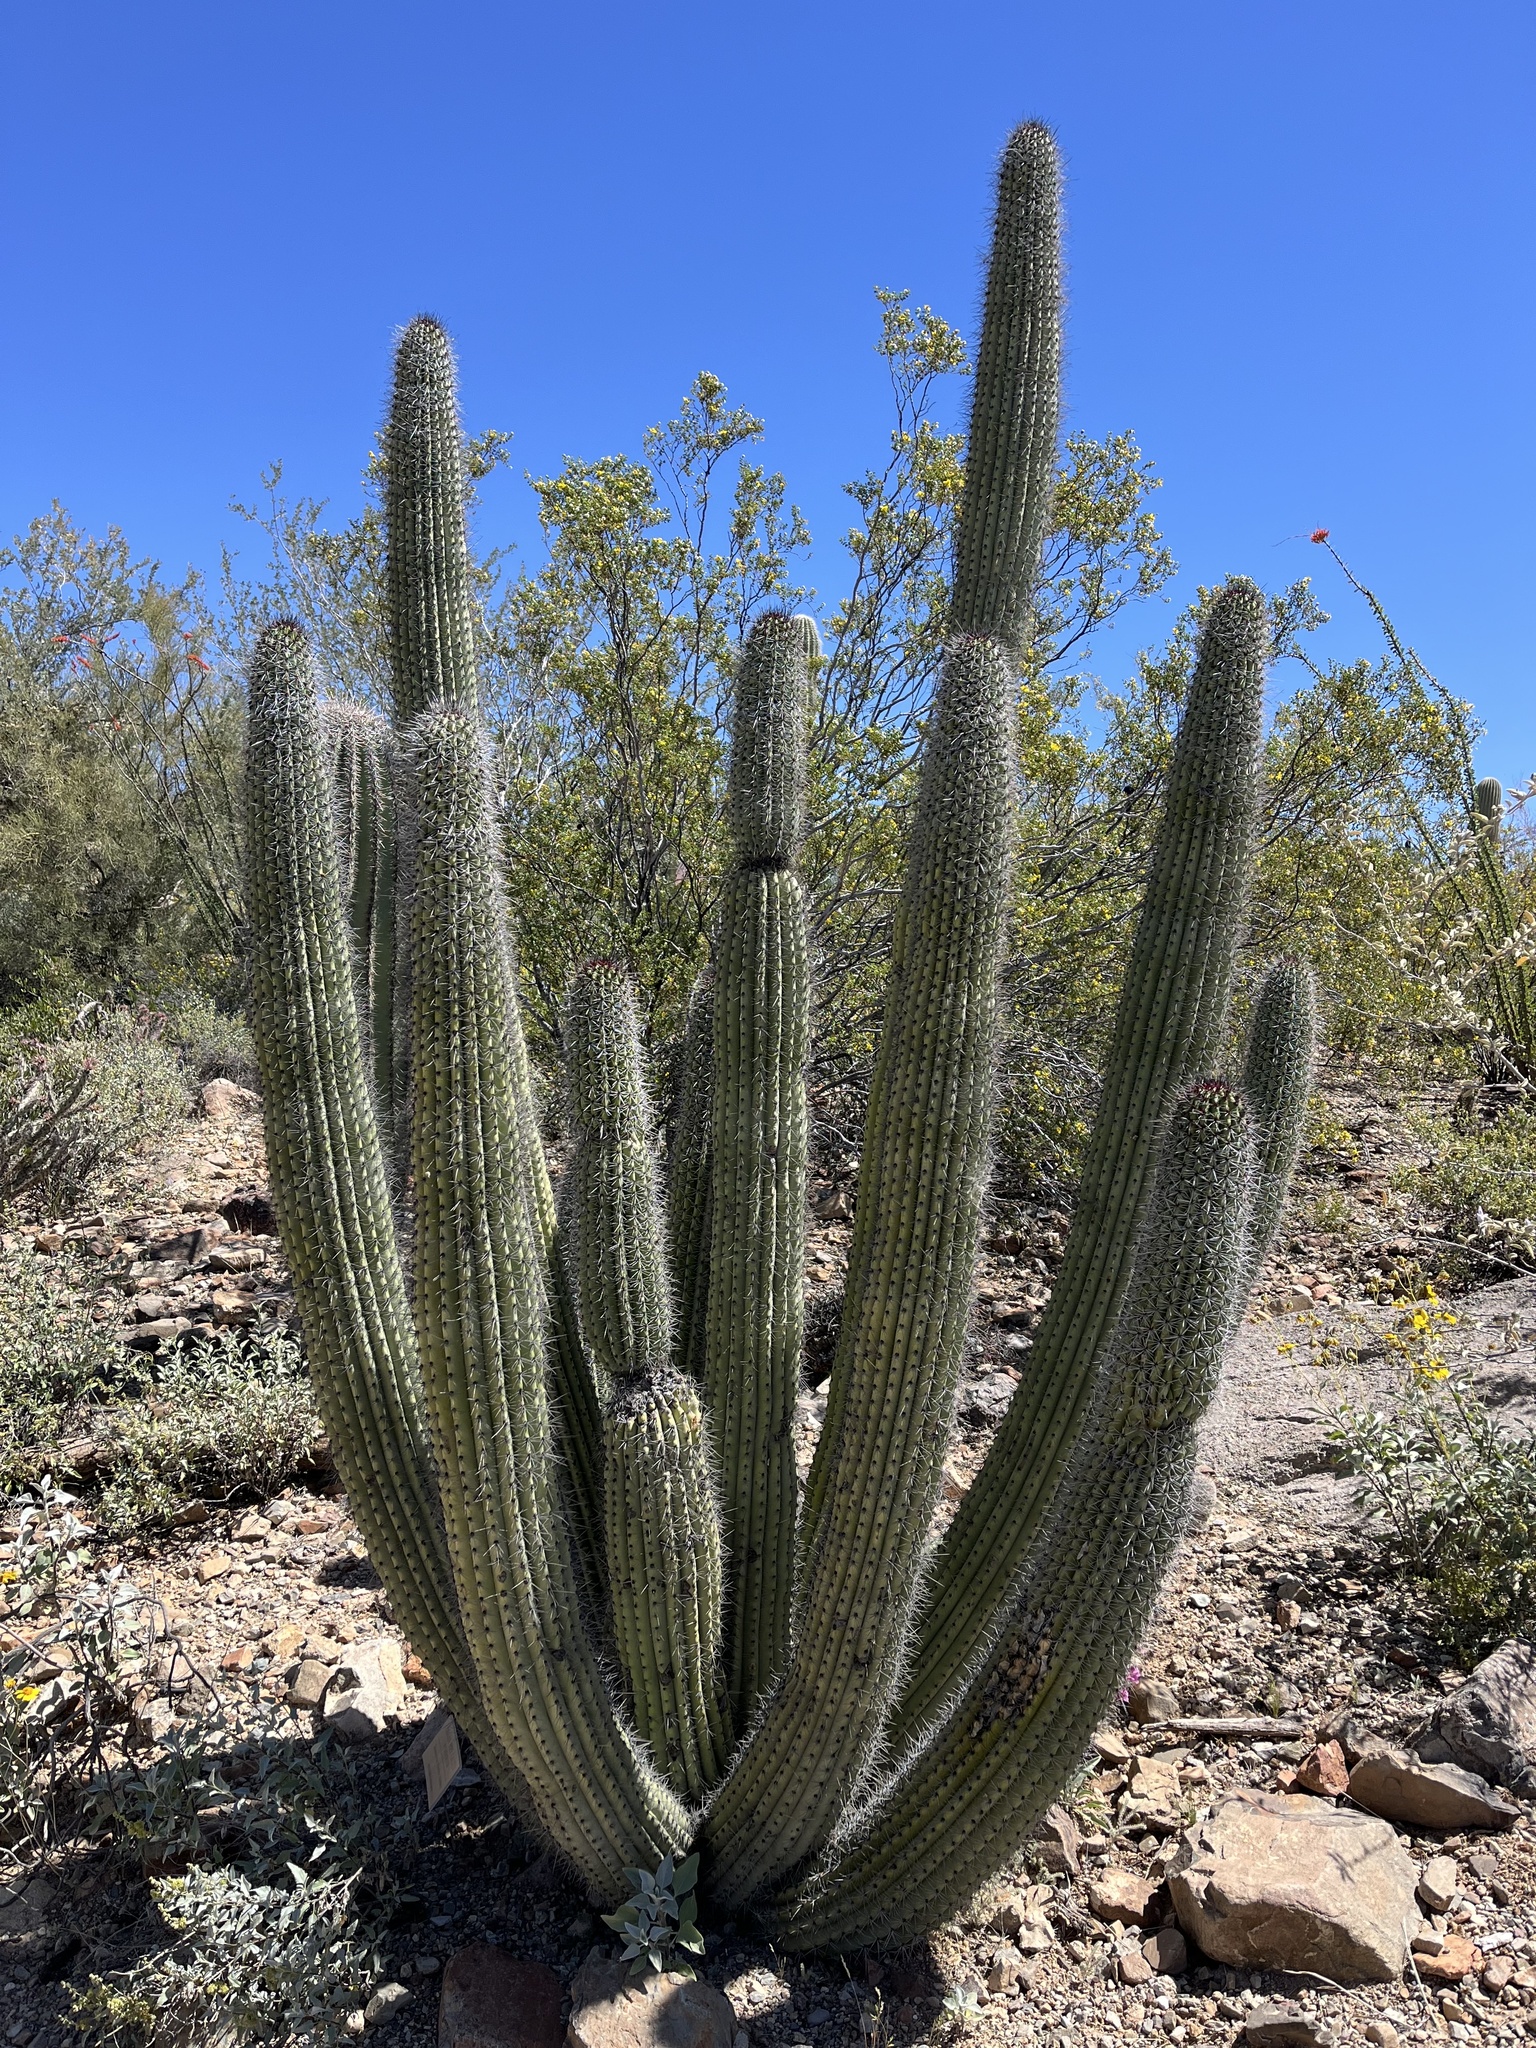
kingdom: Plantae
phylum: Tracheophyta
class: Magnoliopsida
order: Caryophyllales
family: Cactaceae
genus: Stenocereus
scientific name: Stenocereus thurberi
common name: Organ pipe cactus
